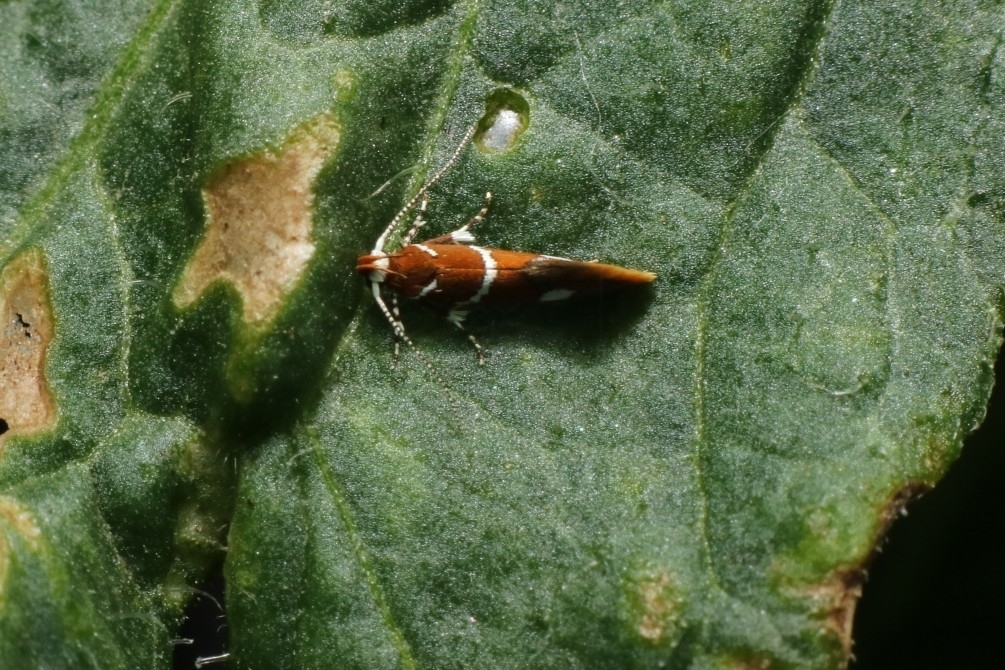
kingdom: Animalia
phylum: Arthropoda
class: Insecta
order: Lepidoptera
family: Oecophoridae
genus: Promalactis
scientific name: Promalactis suzukiella
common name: Moth
